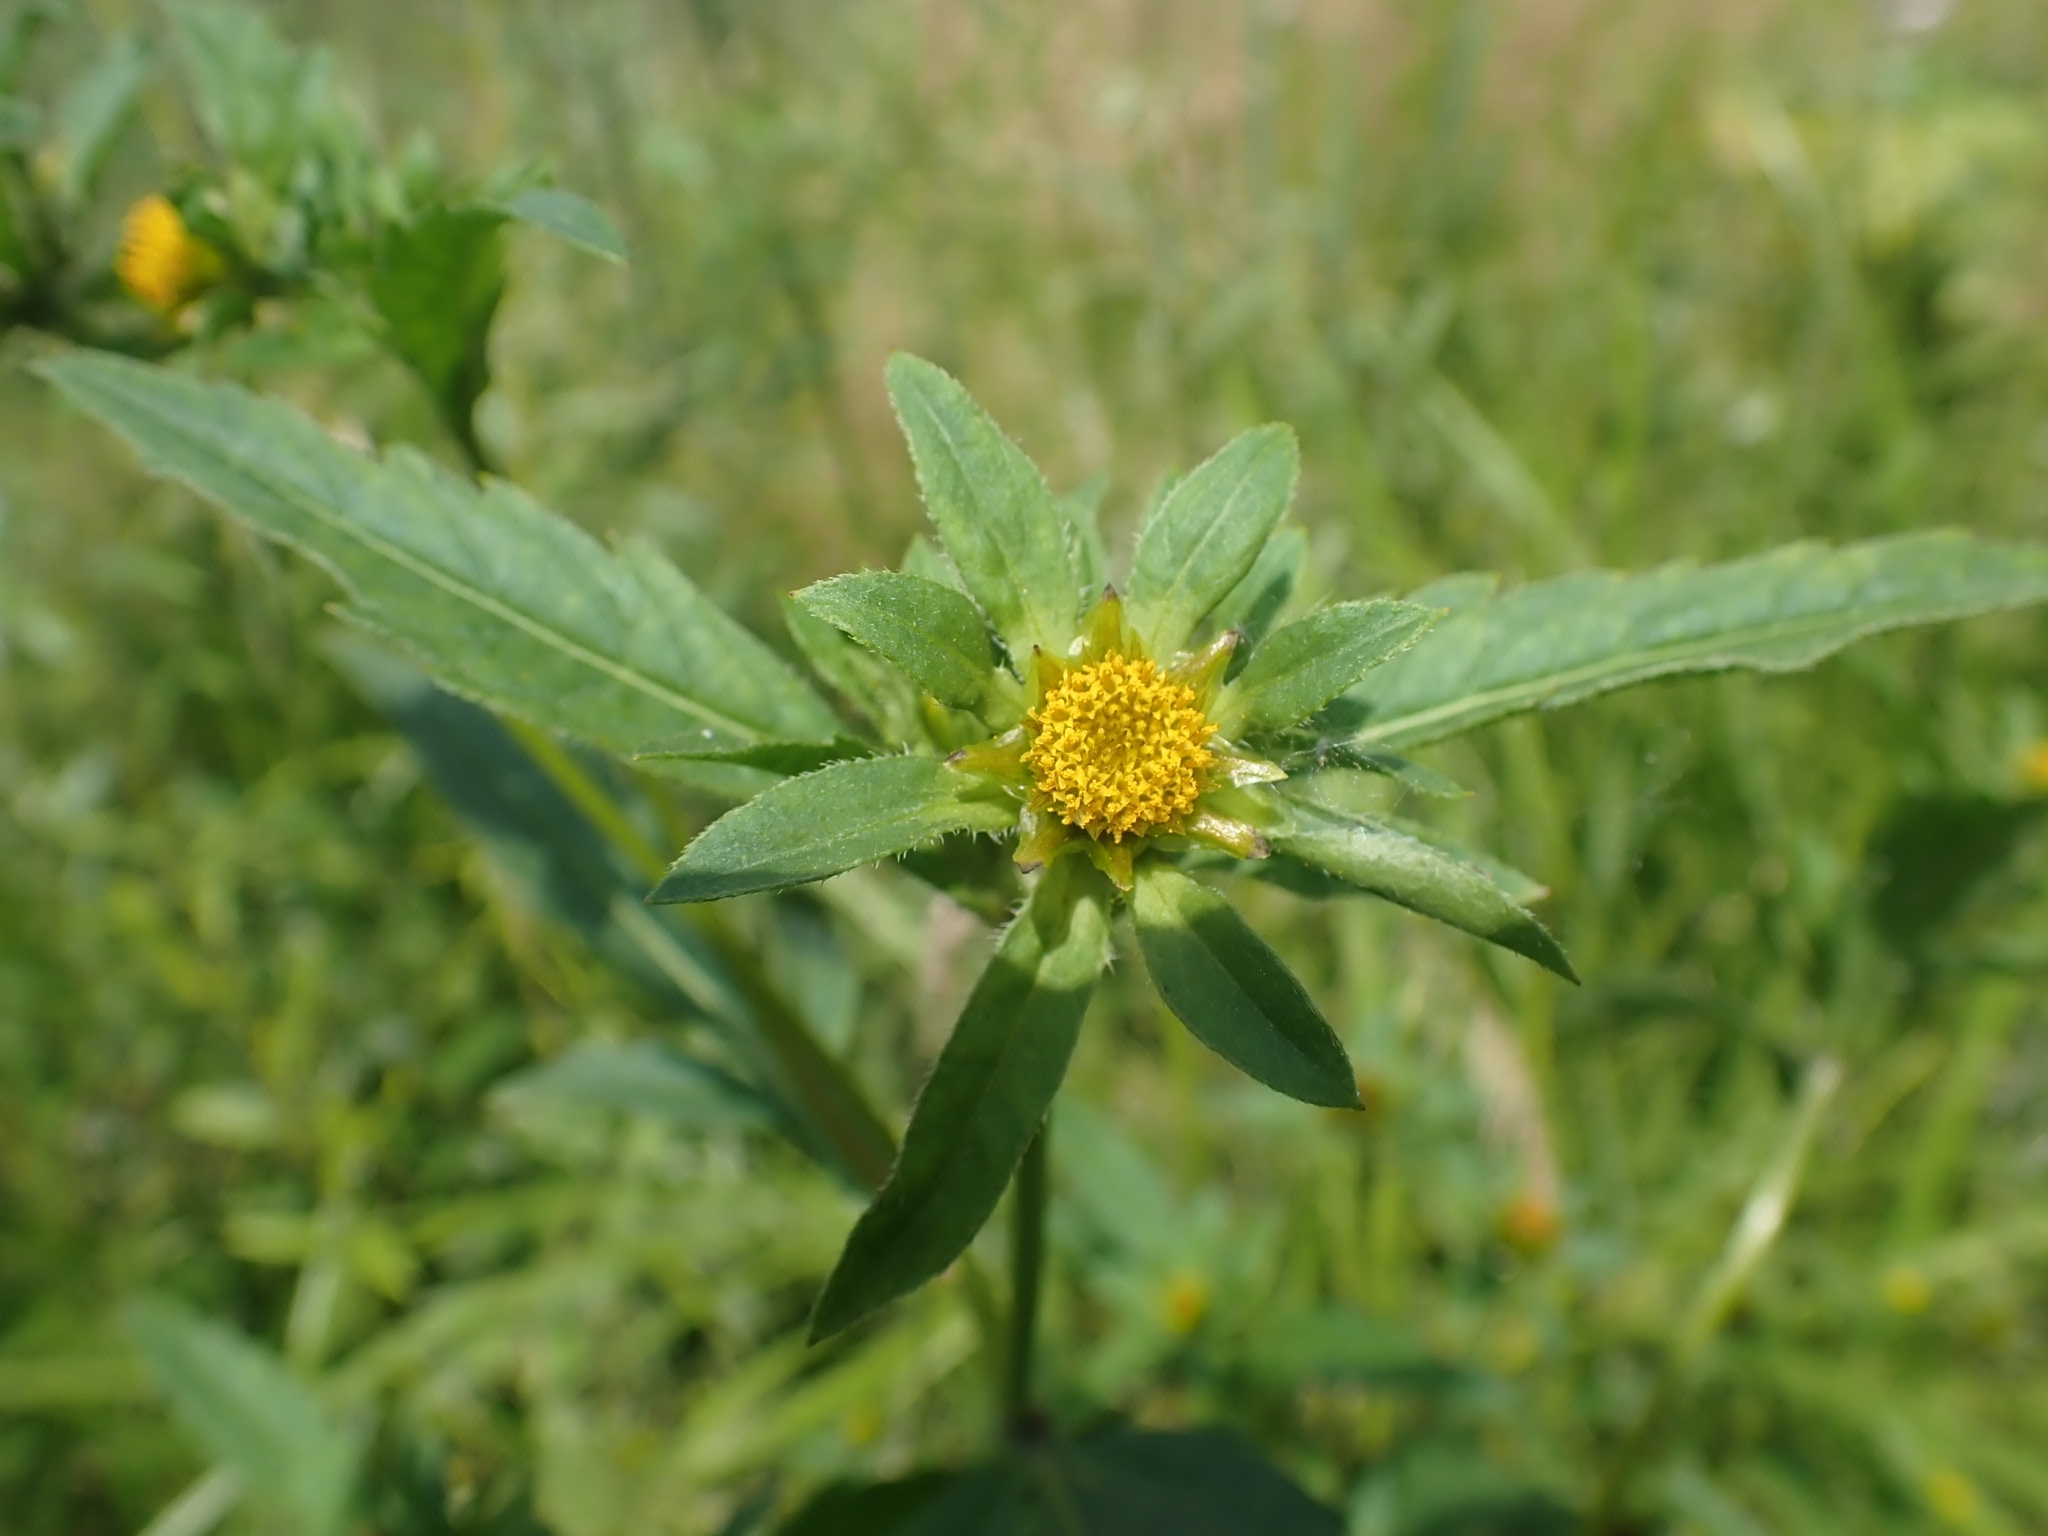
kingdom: Plantae
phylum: Tracheophyta
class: Magnoliopsida
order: Asterales
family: Asteraceae
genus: Bidens
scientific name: Bidens tripartita
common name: Trifid bur-marigold
